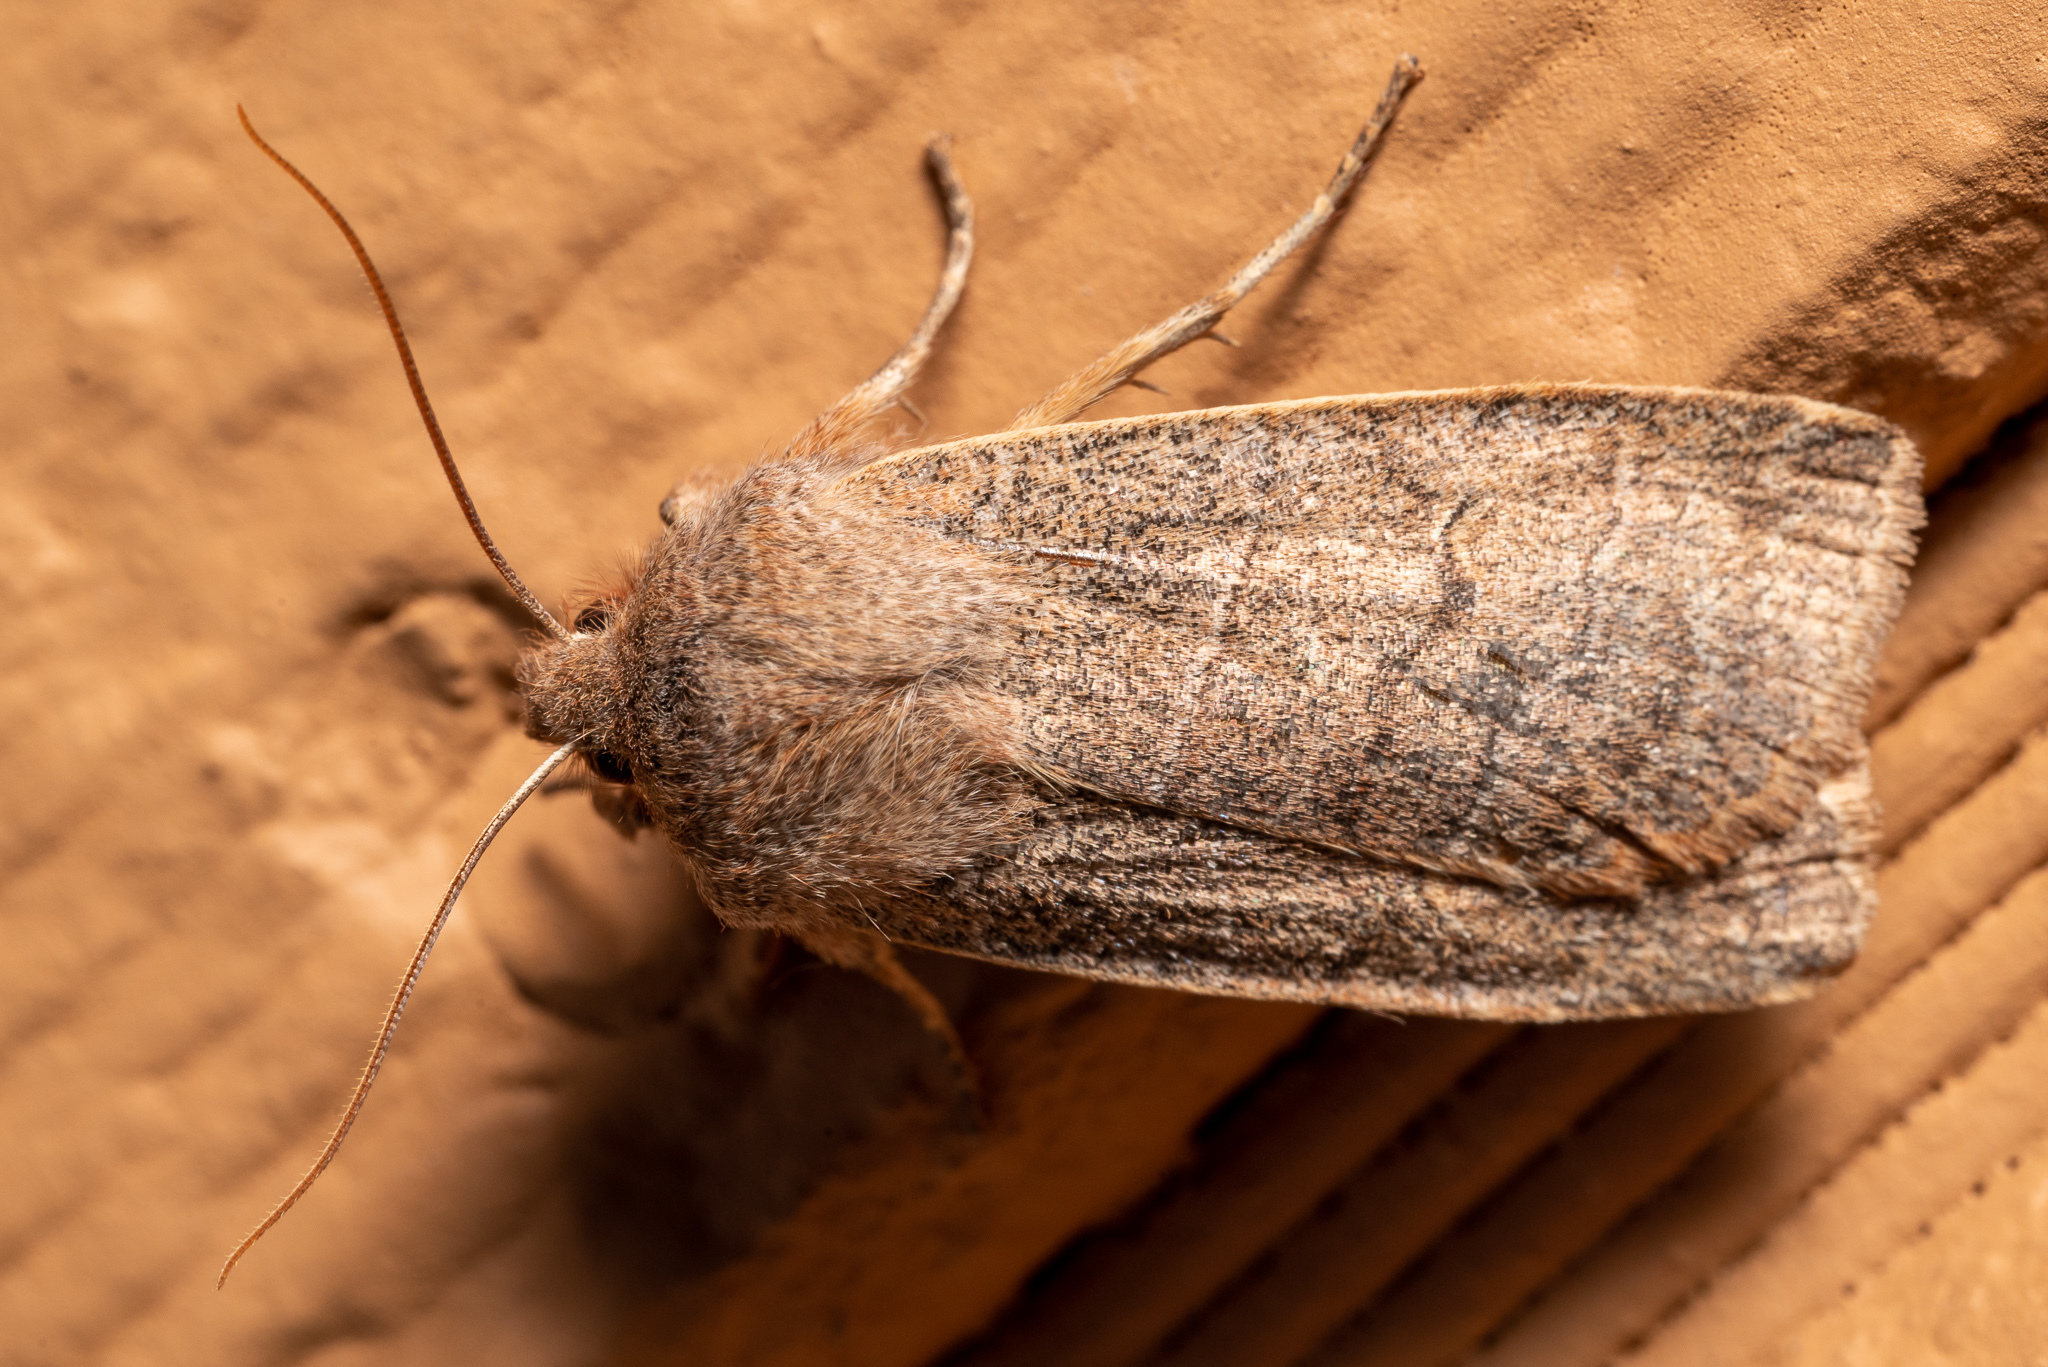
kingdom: Animalia
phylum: Arthropoda
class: Insecta
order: Lepidoptera
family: Noctuidae
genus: Eupsilia
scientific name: Eupsilia morrisoni
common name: Morrison's sallow
